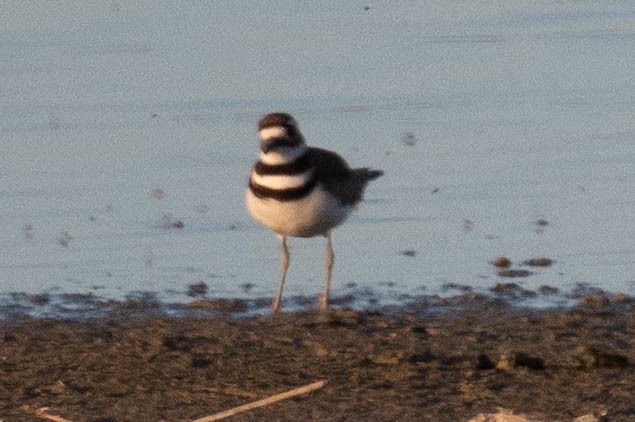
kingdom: Animalia
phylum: Chordata
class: Aves
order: Charadriiformes
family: Charadriidae
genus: Charadrius
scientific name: Charadrius vociferus
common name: Killdeer
